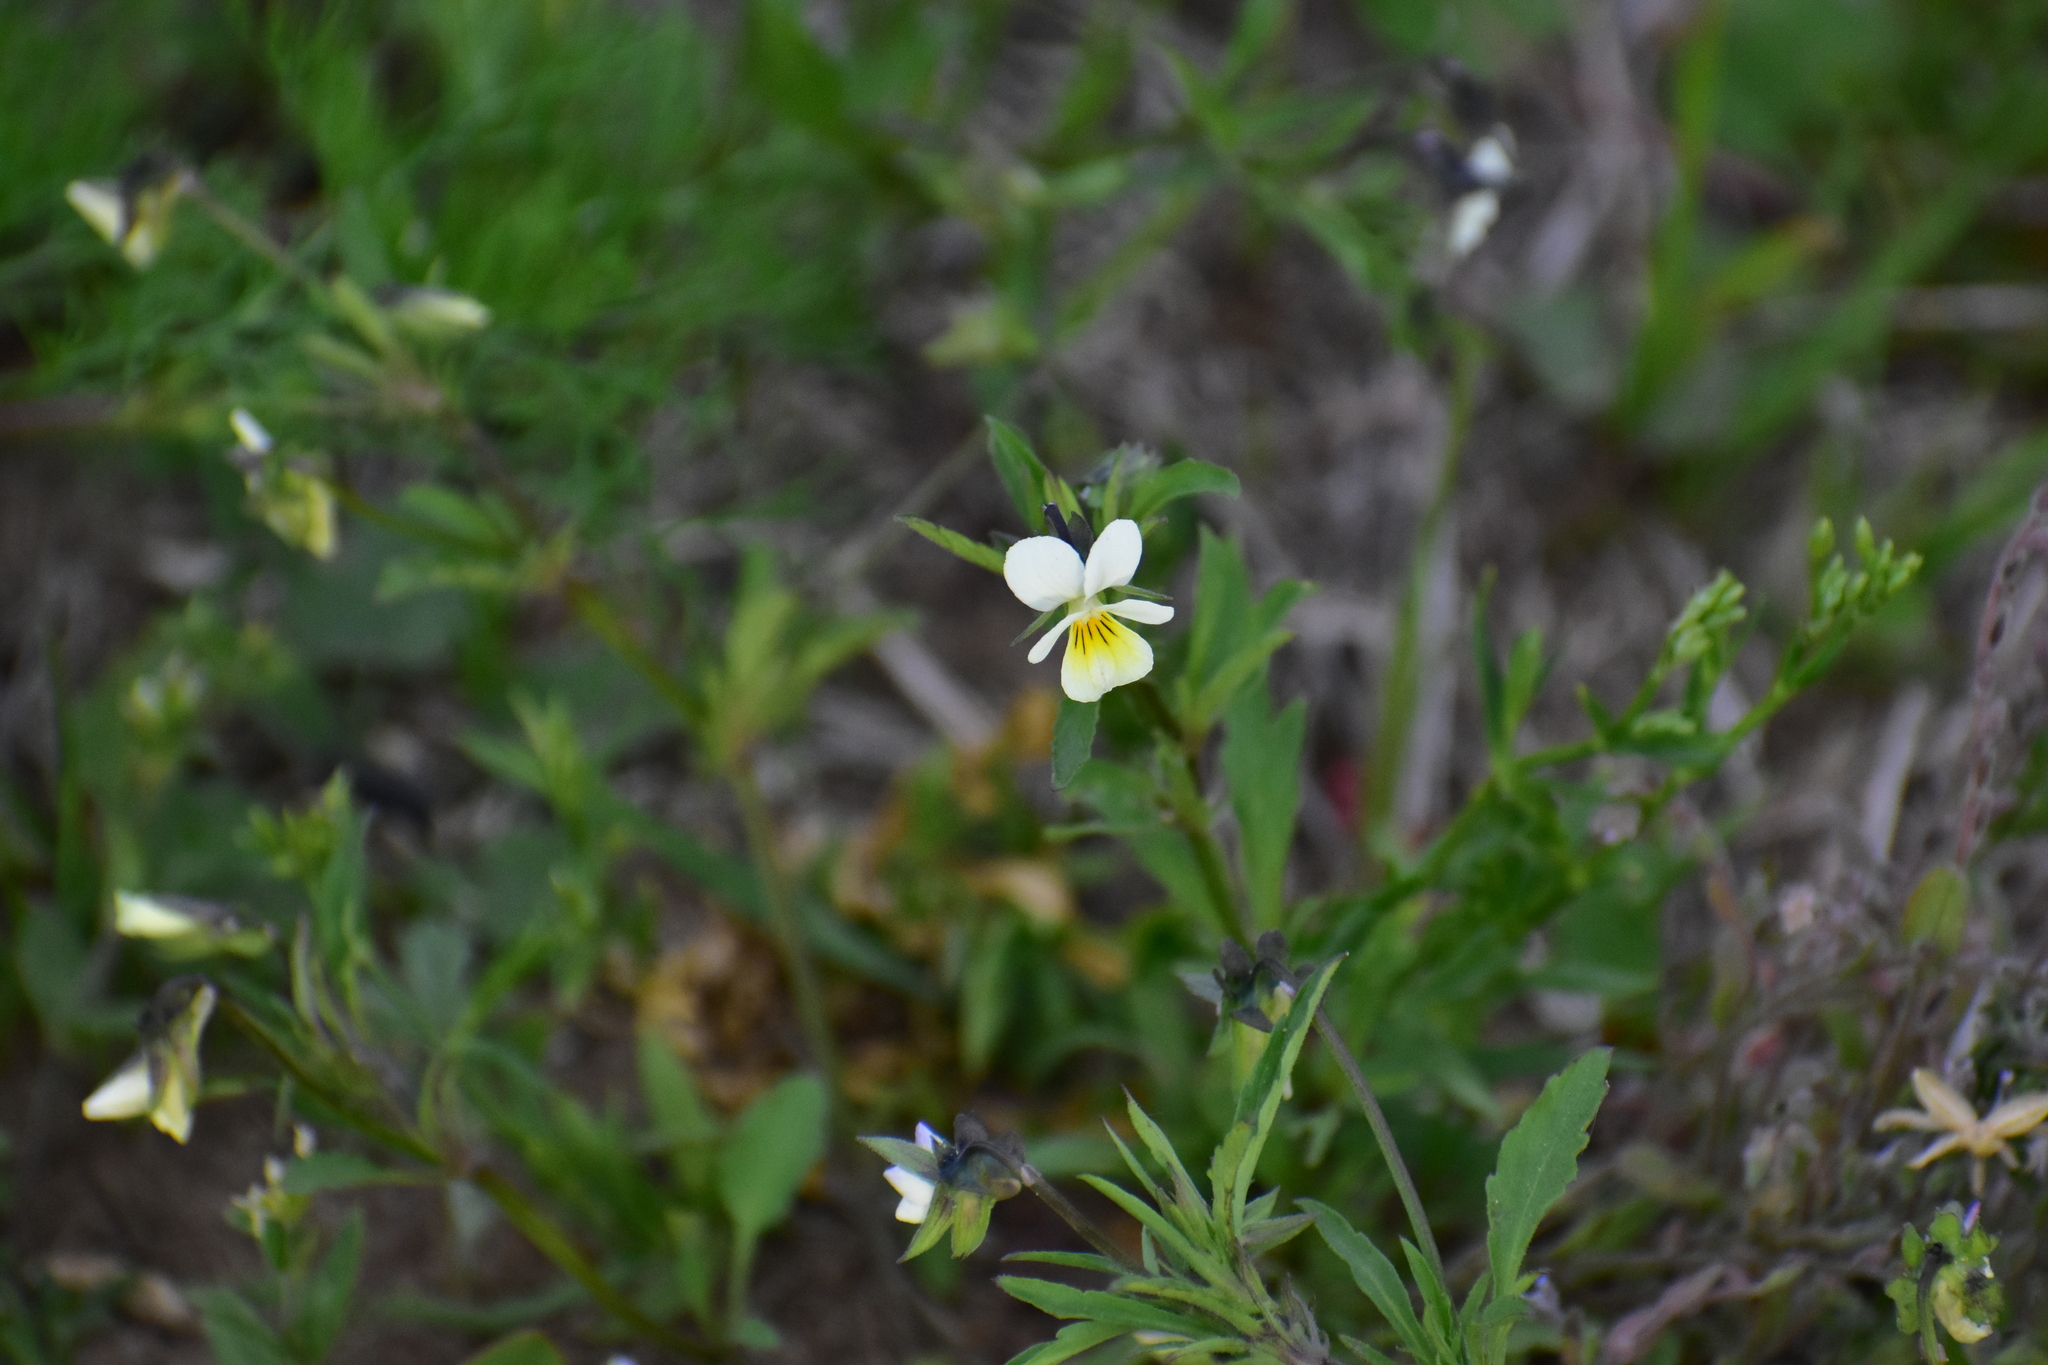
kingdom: Plantae
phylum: Tracheophyta
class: Magnoliopsida
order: Malpighiales
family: Violaceae
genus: Viola
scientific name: Viola arvensis
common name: Field pansy
